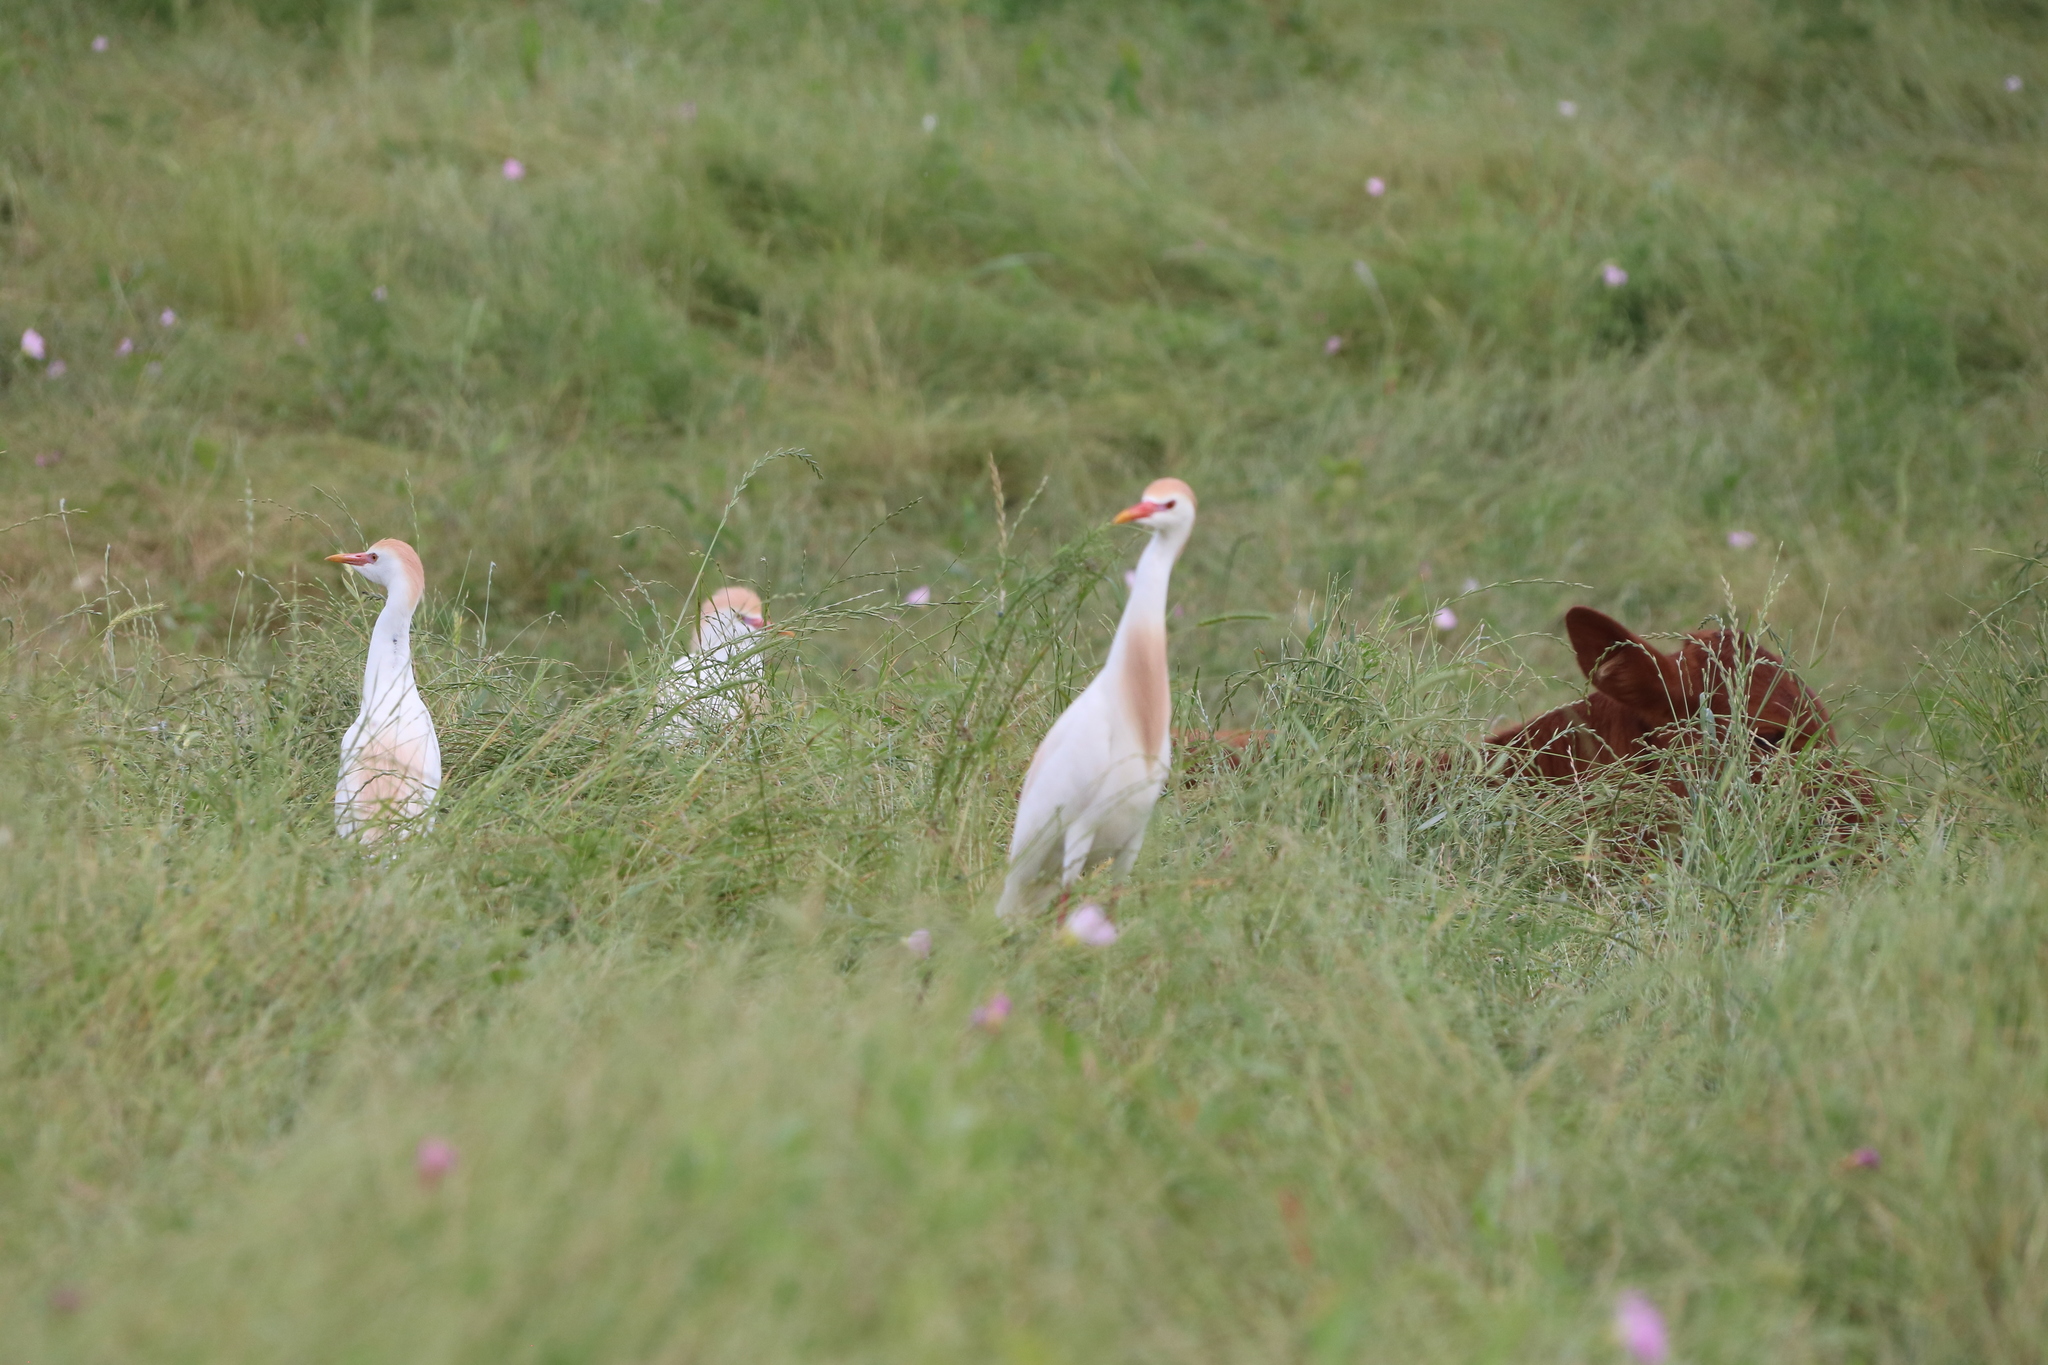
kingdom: Animalia
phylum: Chordata
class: Aves
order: Pelecaniformes
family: Ardeidae
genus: Bubulcus
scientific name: Bubulcus ibis
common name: Cattle egret
